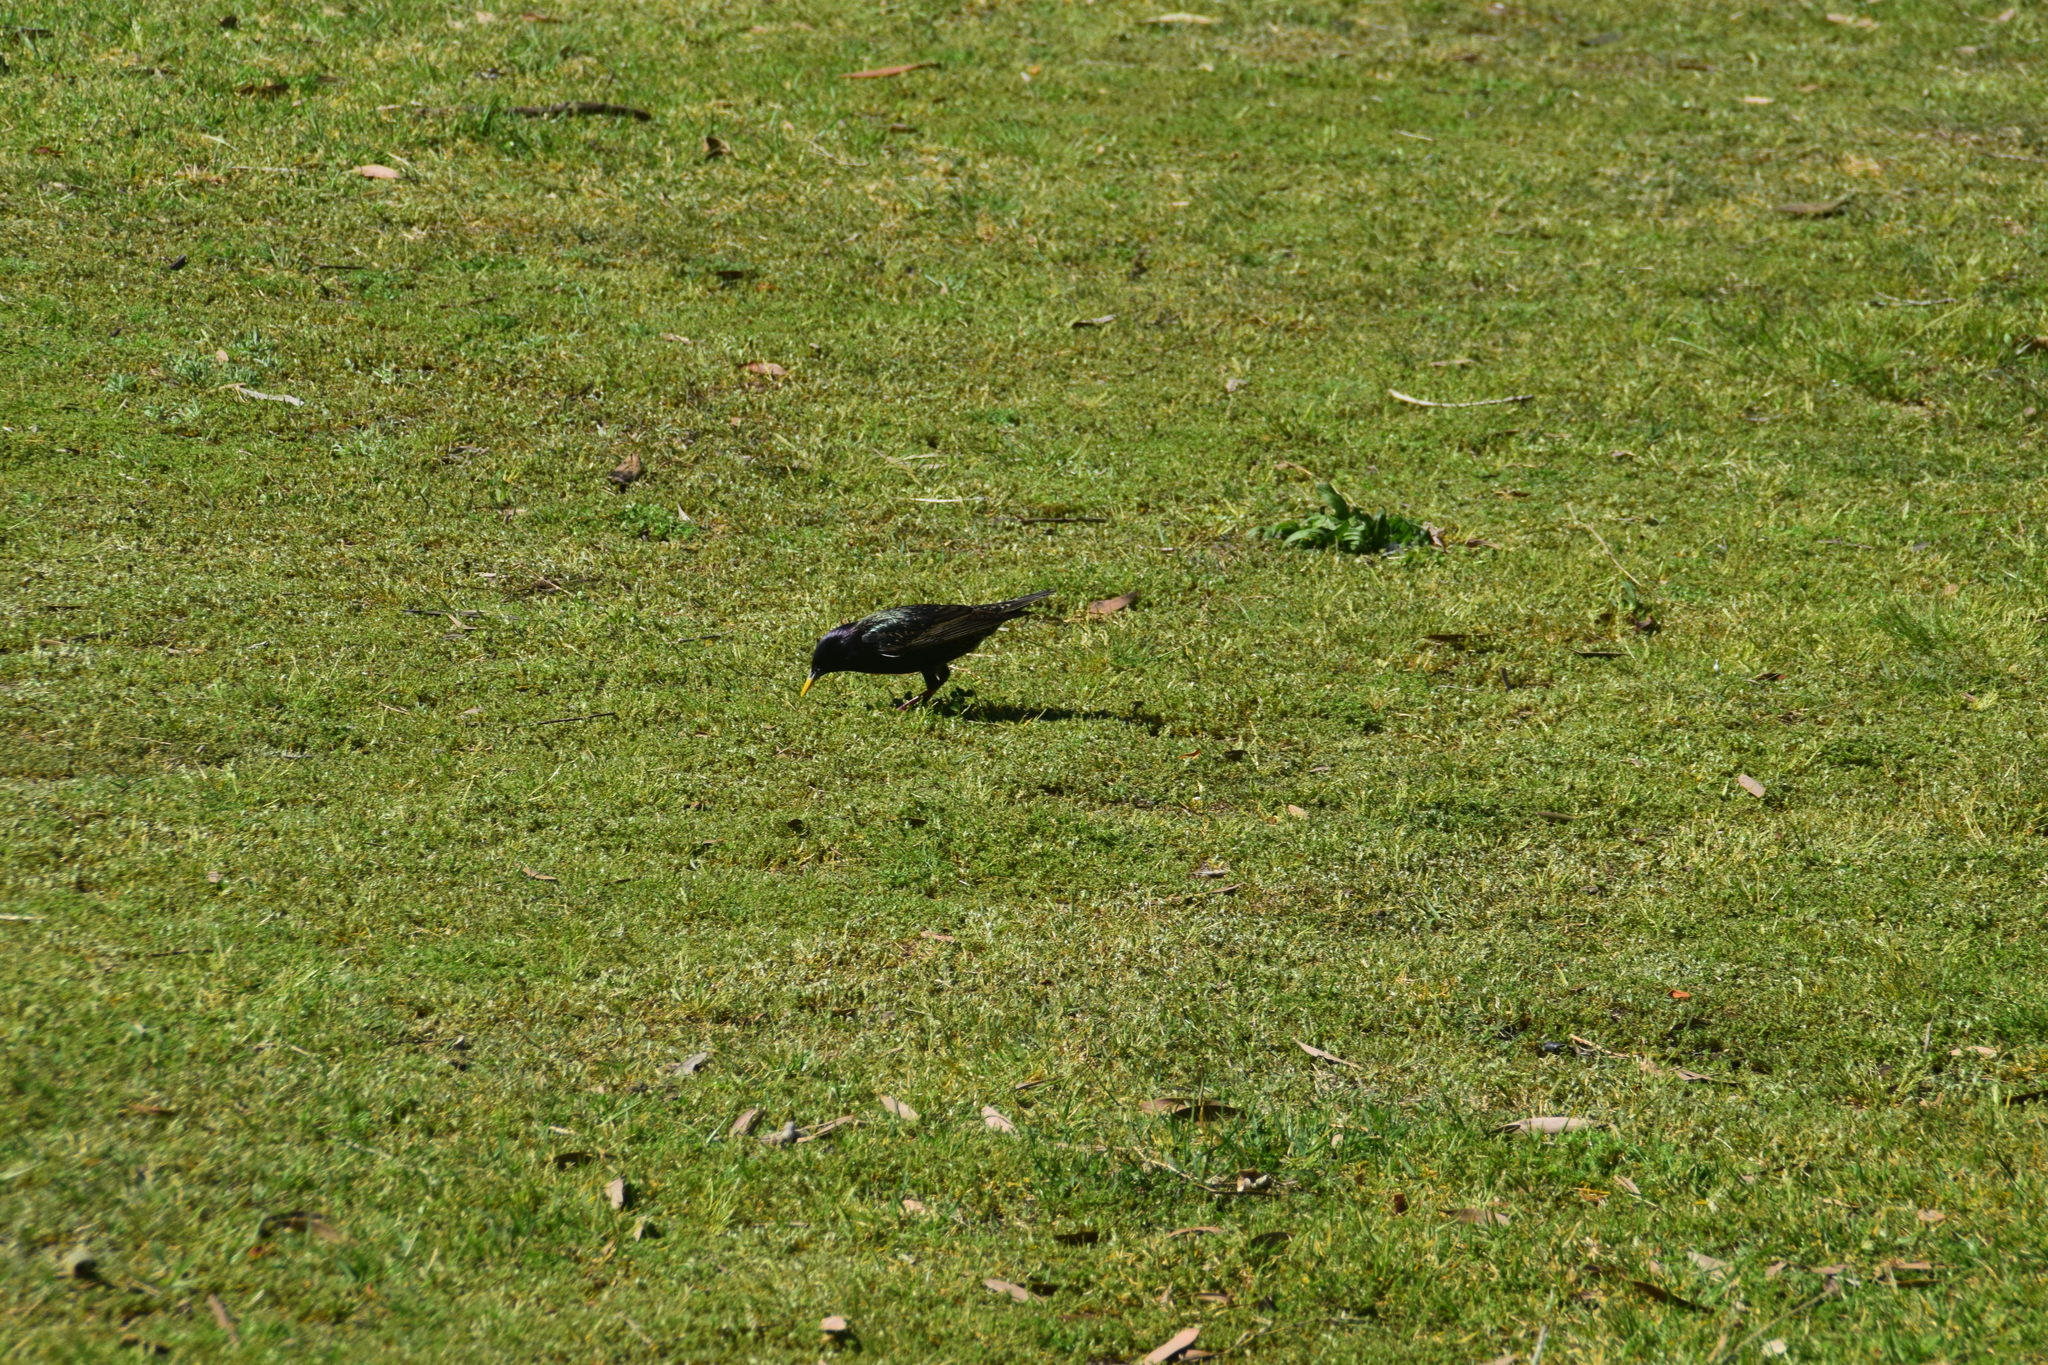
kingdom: Animalia
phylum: Chordata
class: Aves
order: Passeriformes
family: Sturnidae
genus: Sturnus
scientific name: Sturnus vulgaris
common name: Common starling
